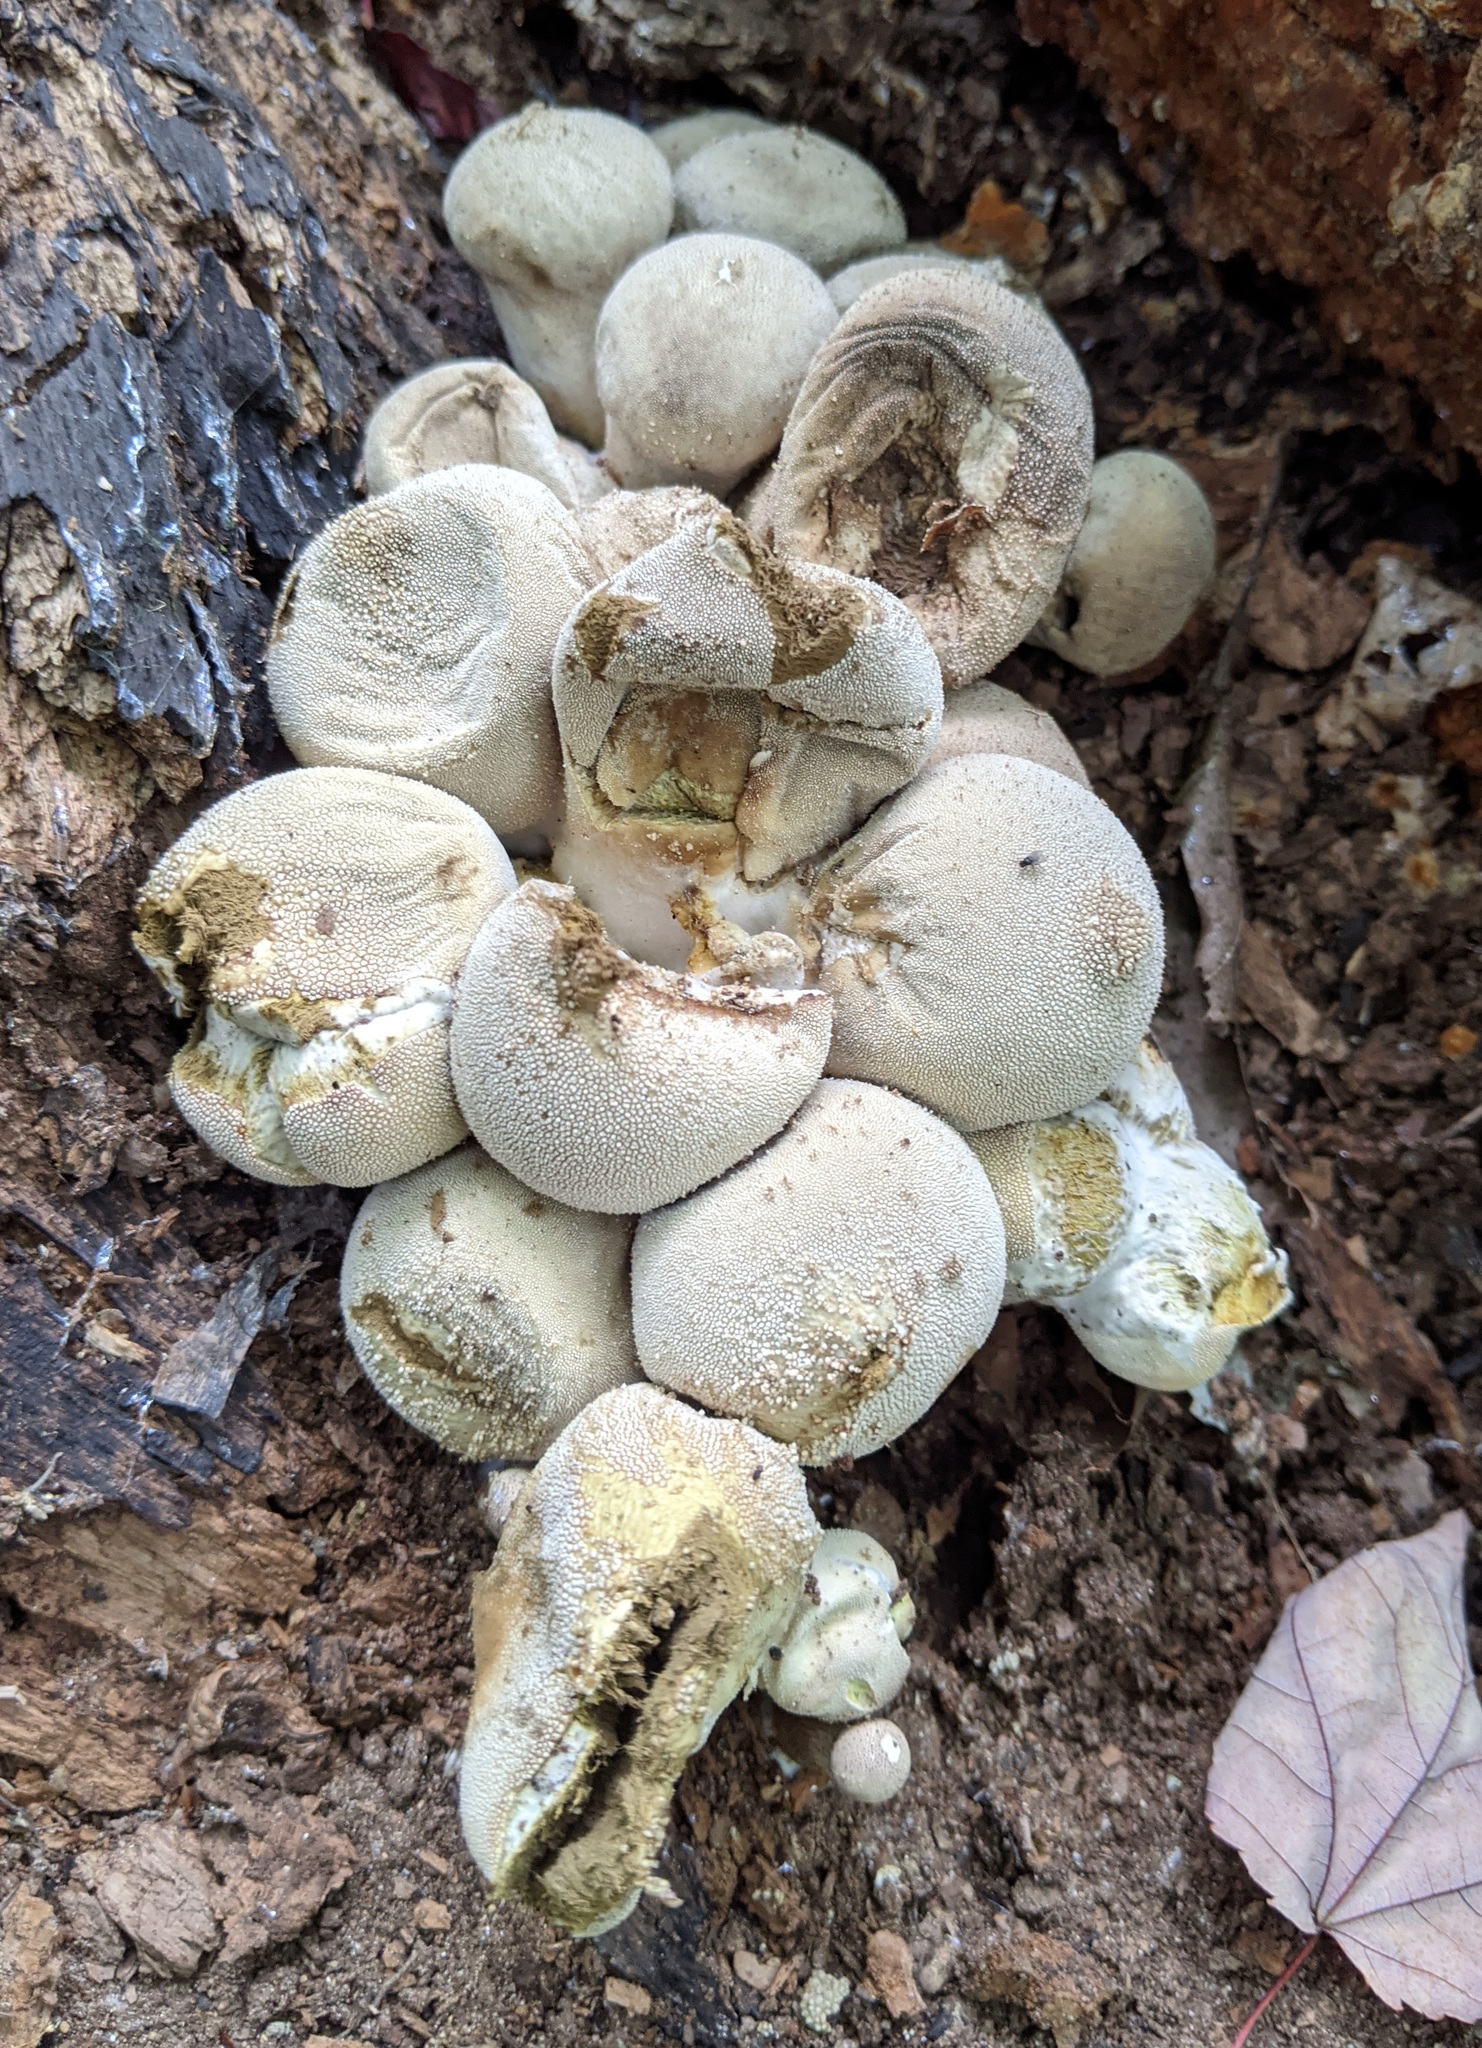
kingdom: Fungi
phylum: Basidiomycota
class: Agaricomycetes
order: Agaricales
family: Lycoperdaceae
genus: Lycoperdon
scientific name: Lycoperdon perlatum
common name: Common puffball
